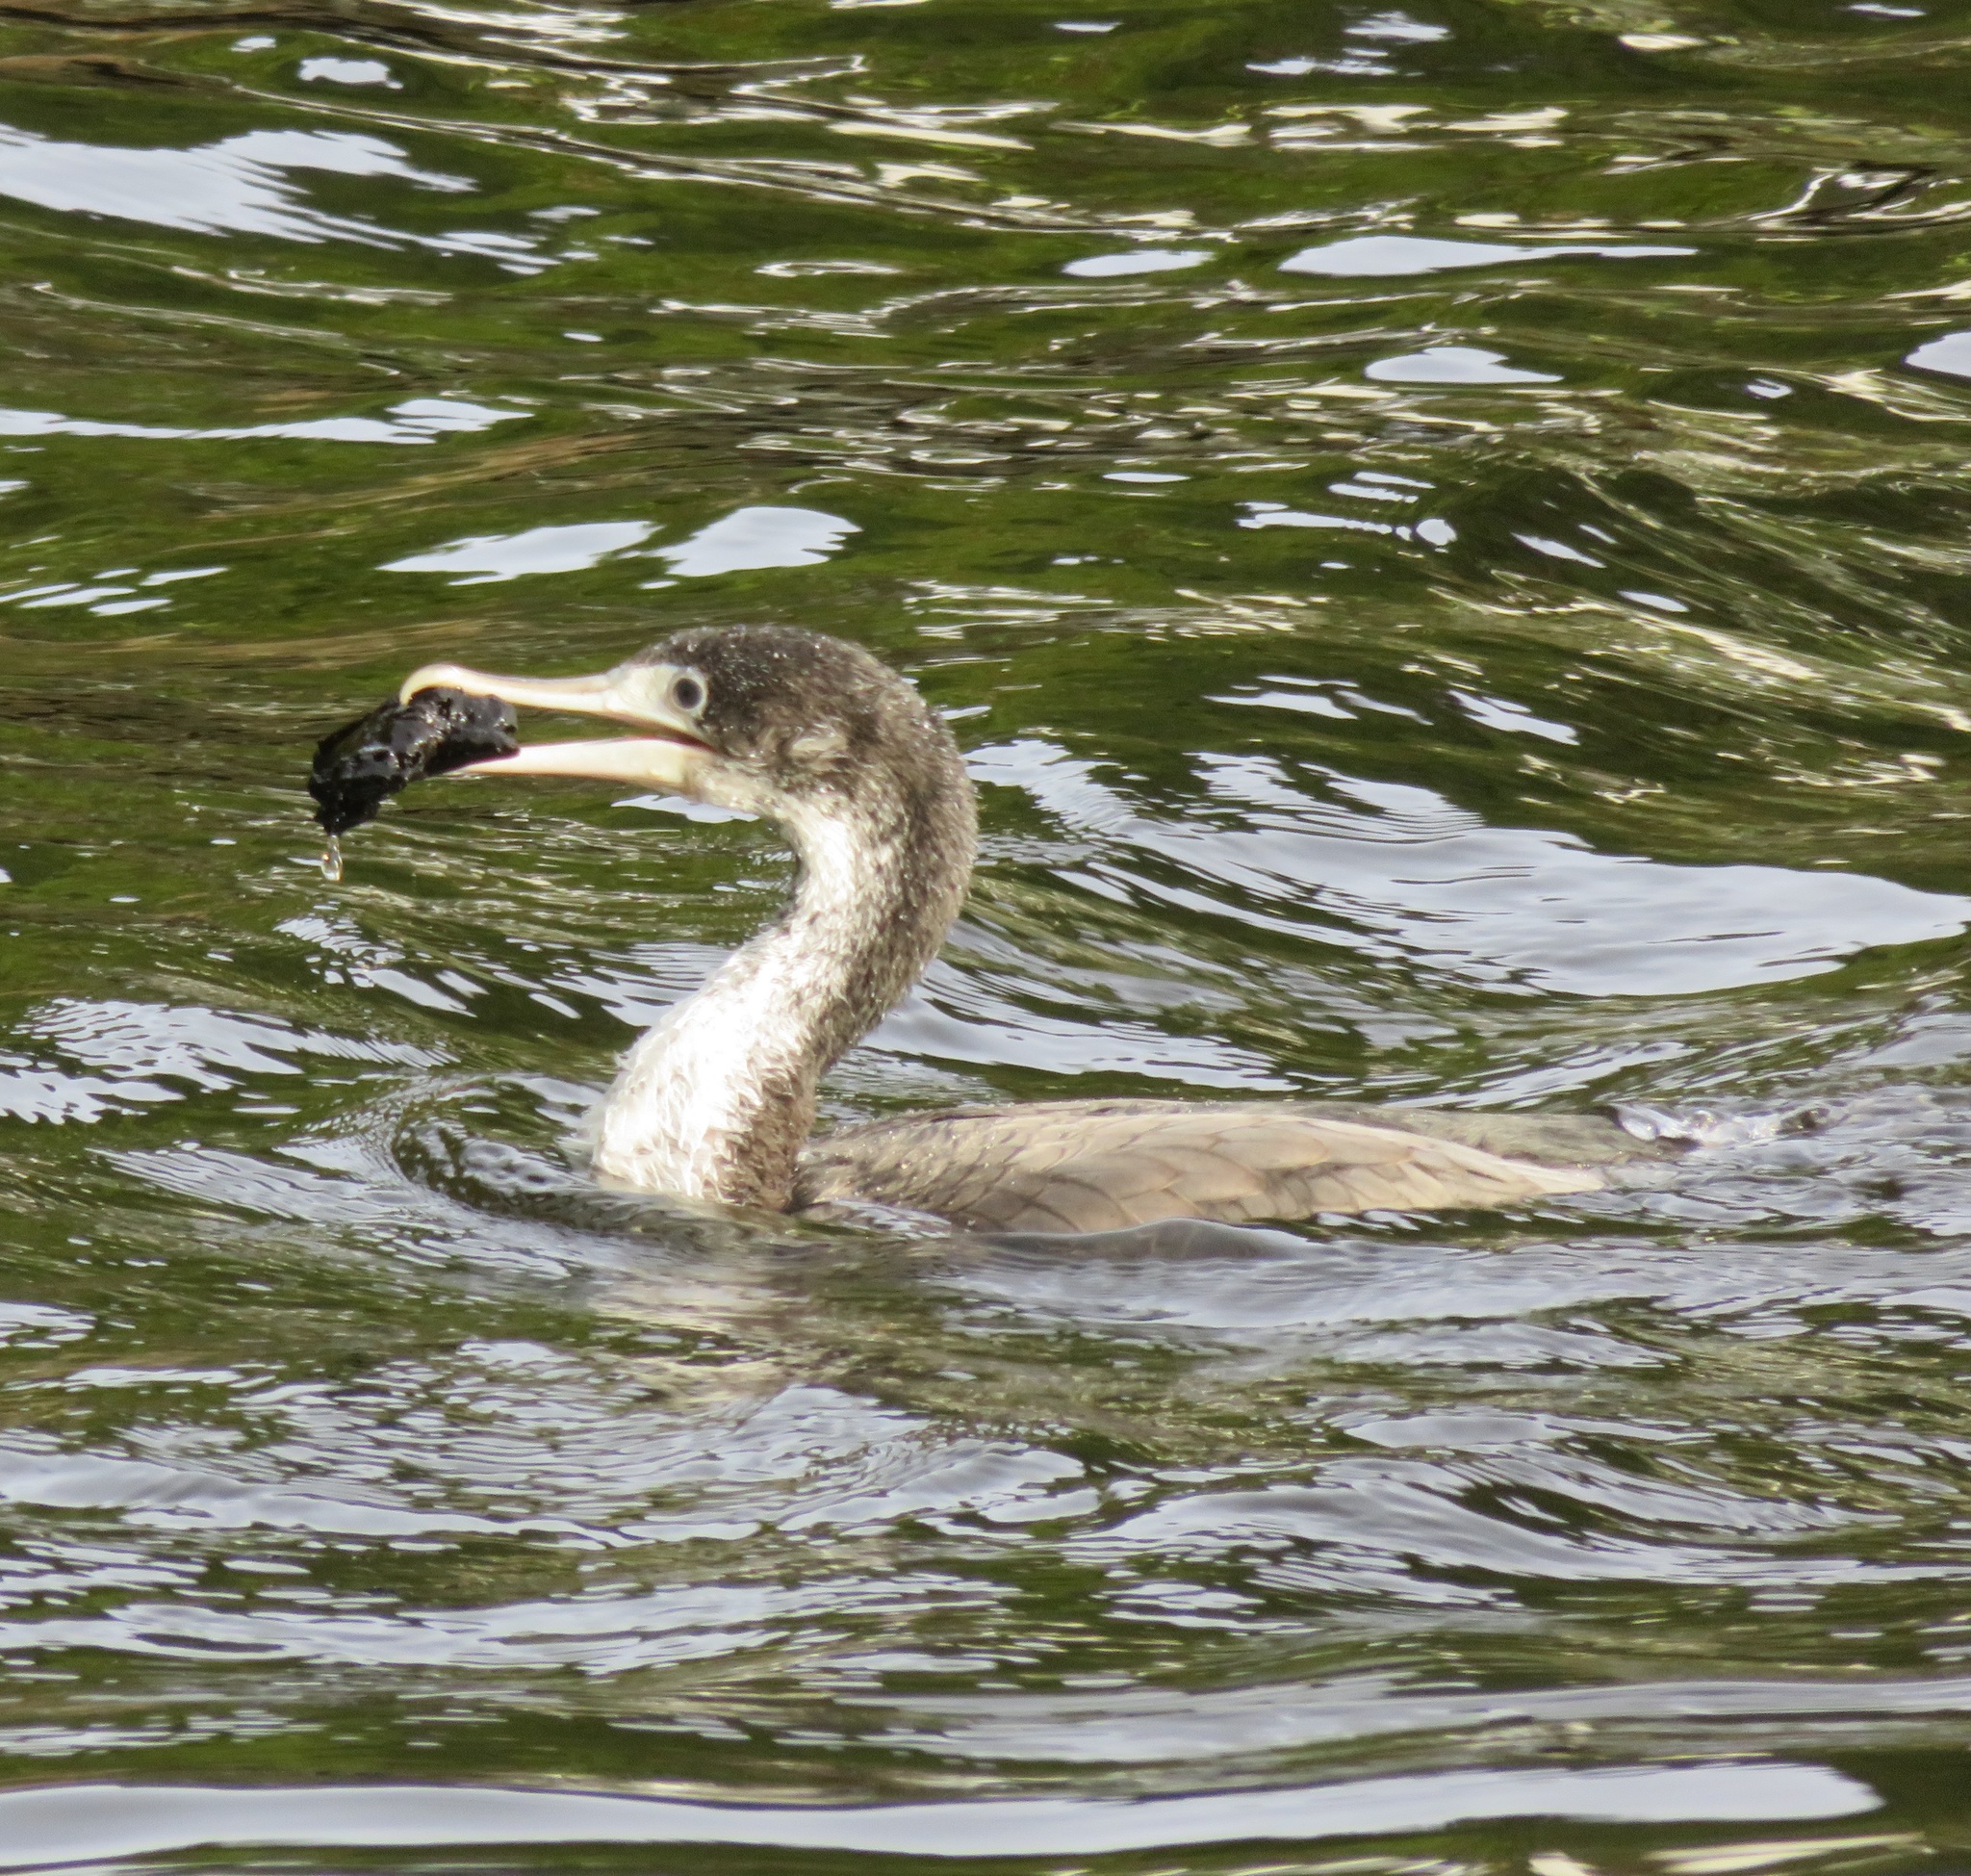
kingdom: Animalia
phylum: Chordata
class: Aves
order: Suliformes
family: Phalacrocoracidae
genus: Phalacrocorax
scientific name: Phalacrocorax varius
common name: Pied cormorant
